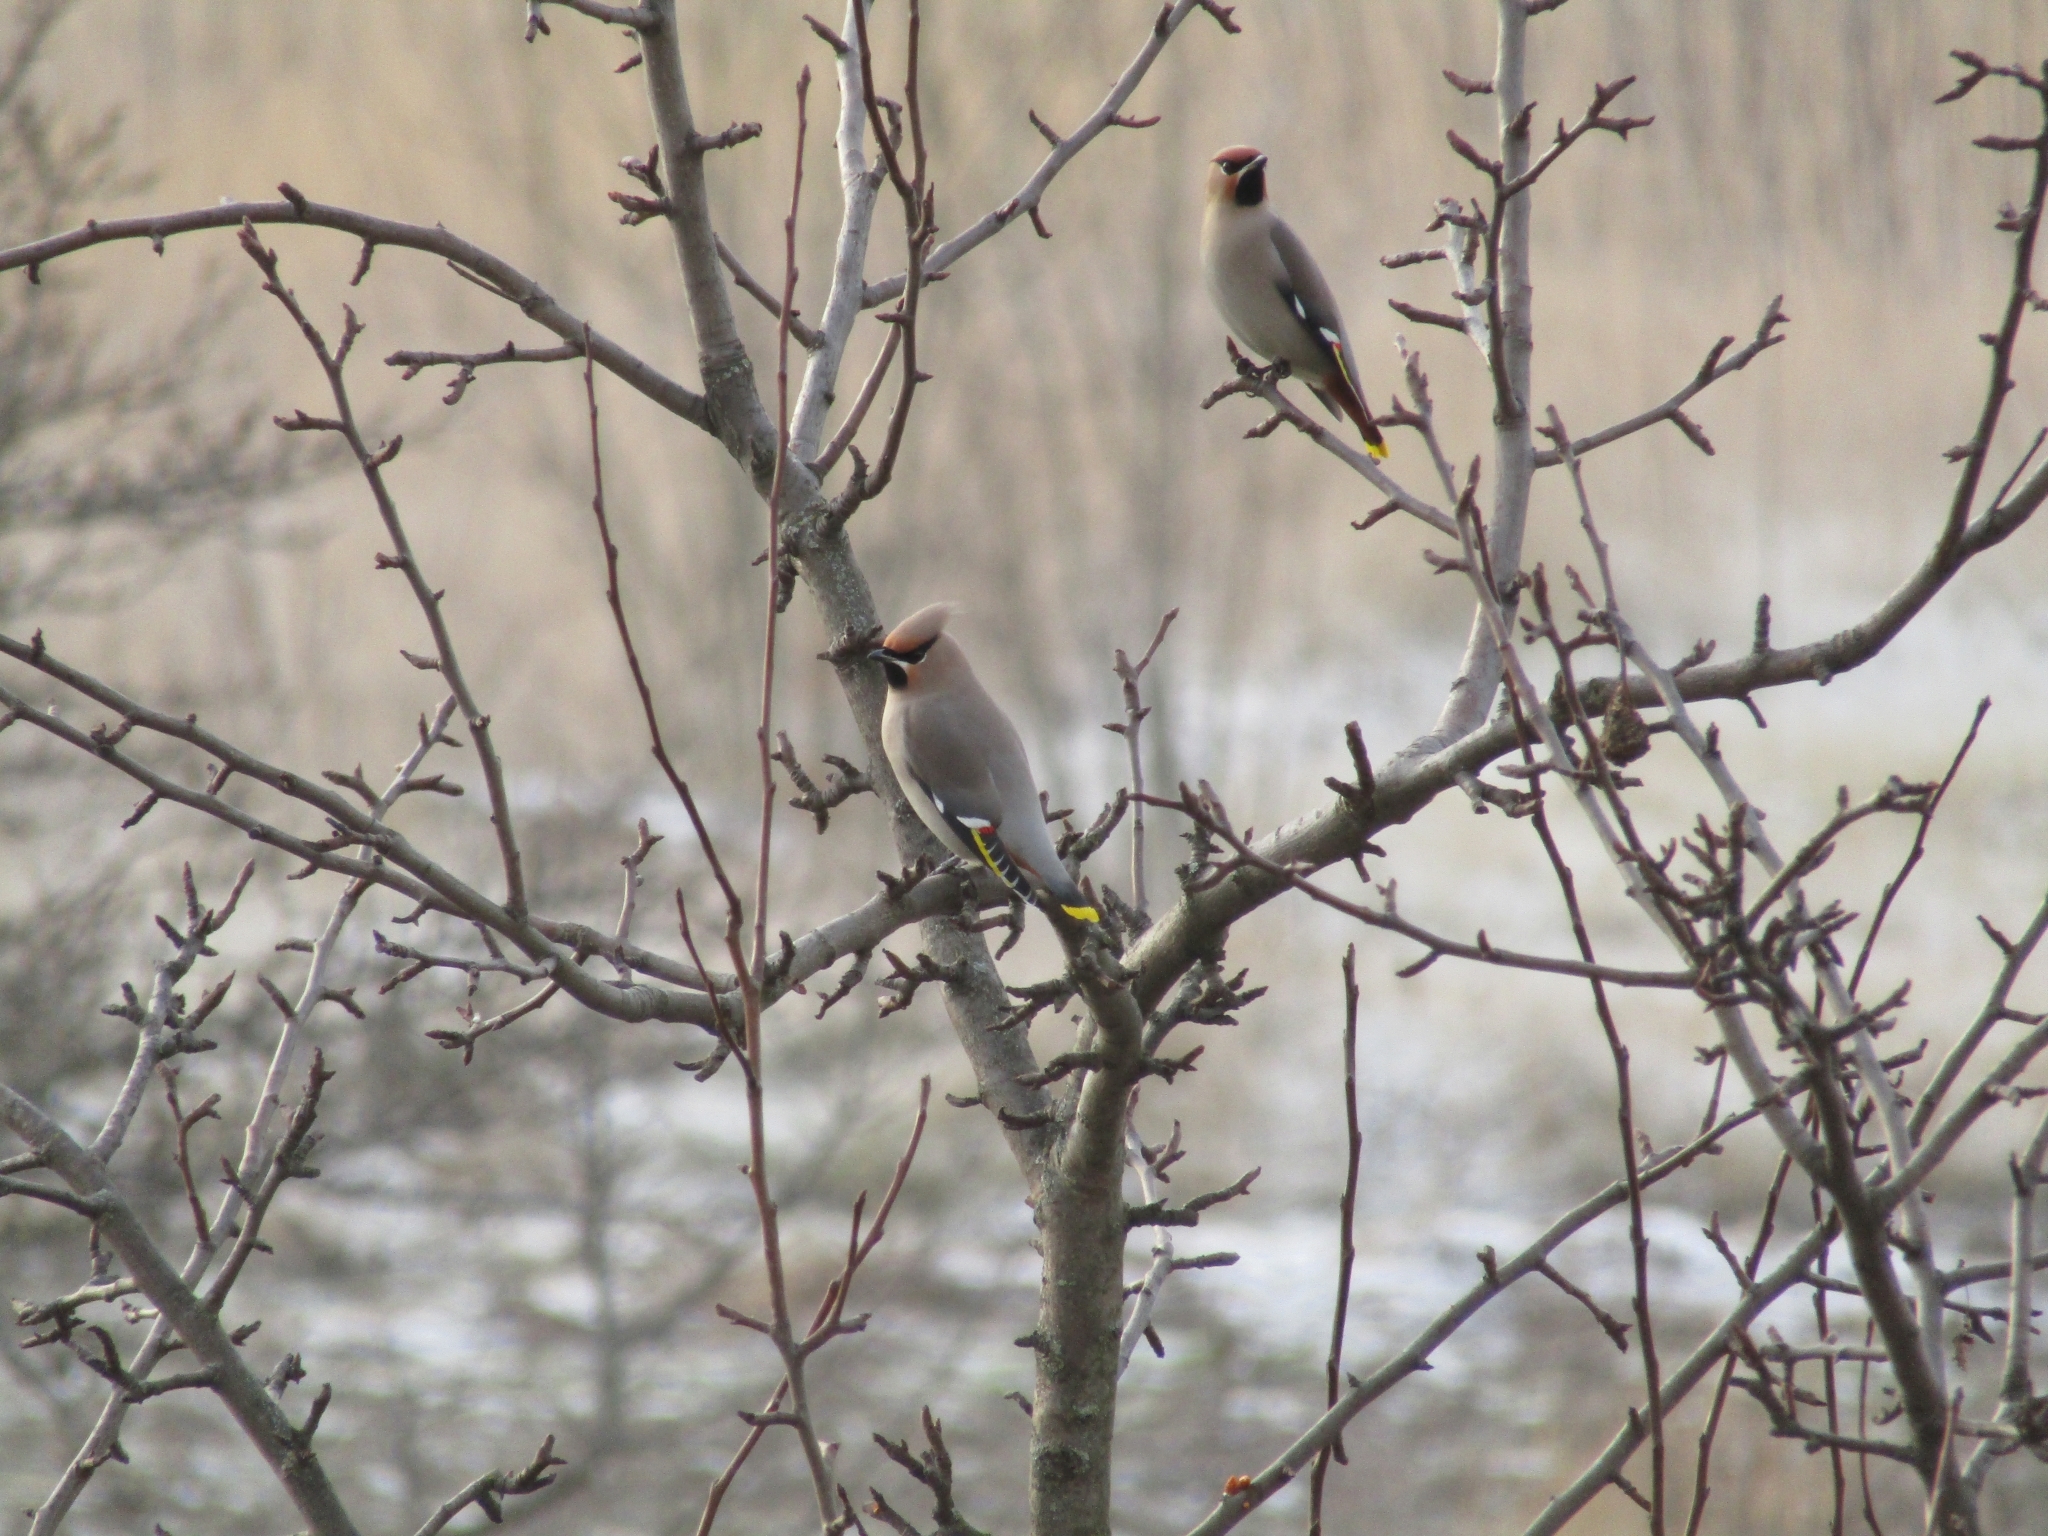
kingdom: Animalia
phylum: Chordata
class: Aves
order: Passeriformes
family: Bombycillidae
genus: Bombycilla
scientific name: Bombycilla garrulus
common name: Bohemian waxwing
